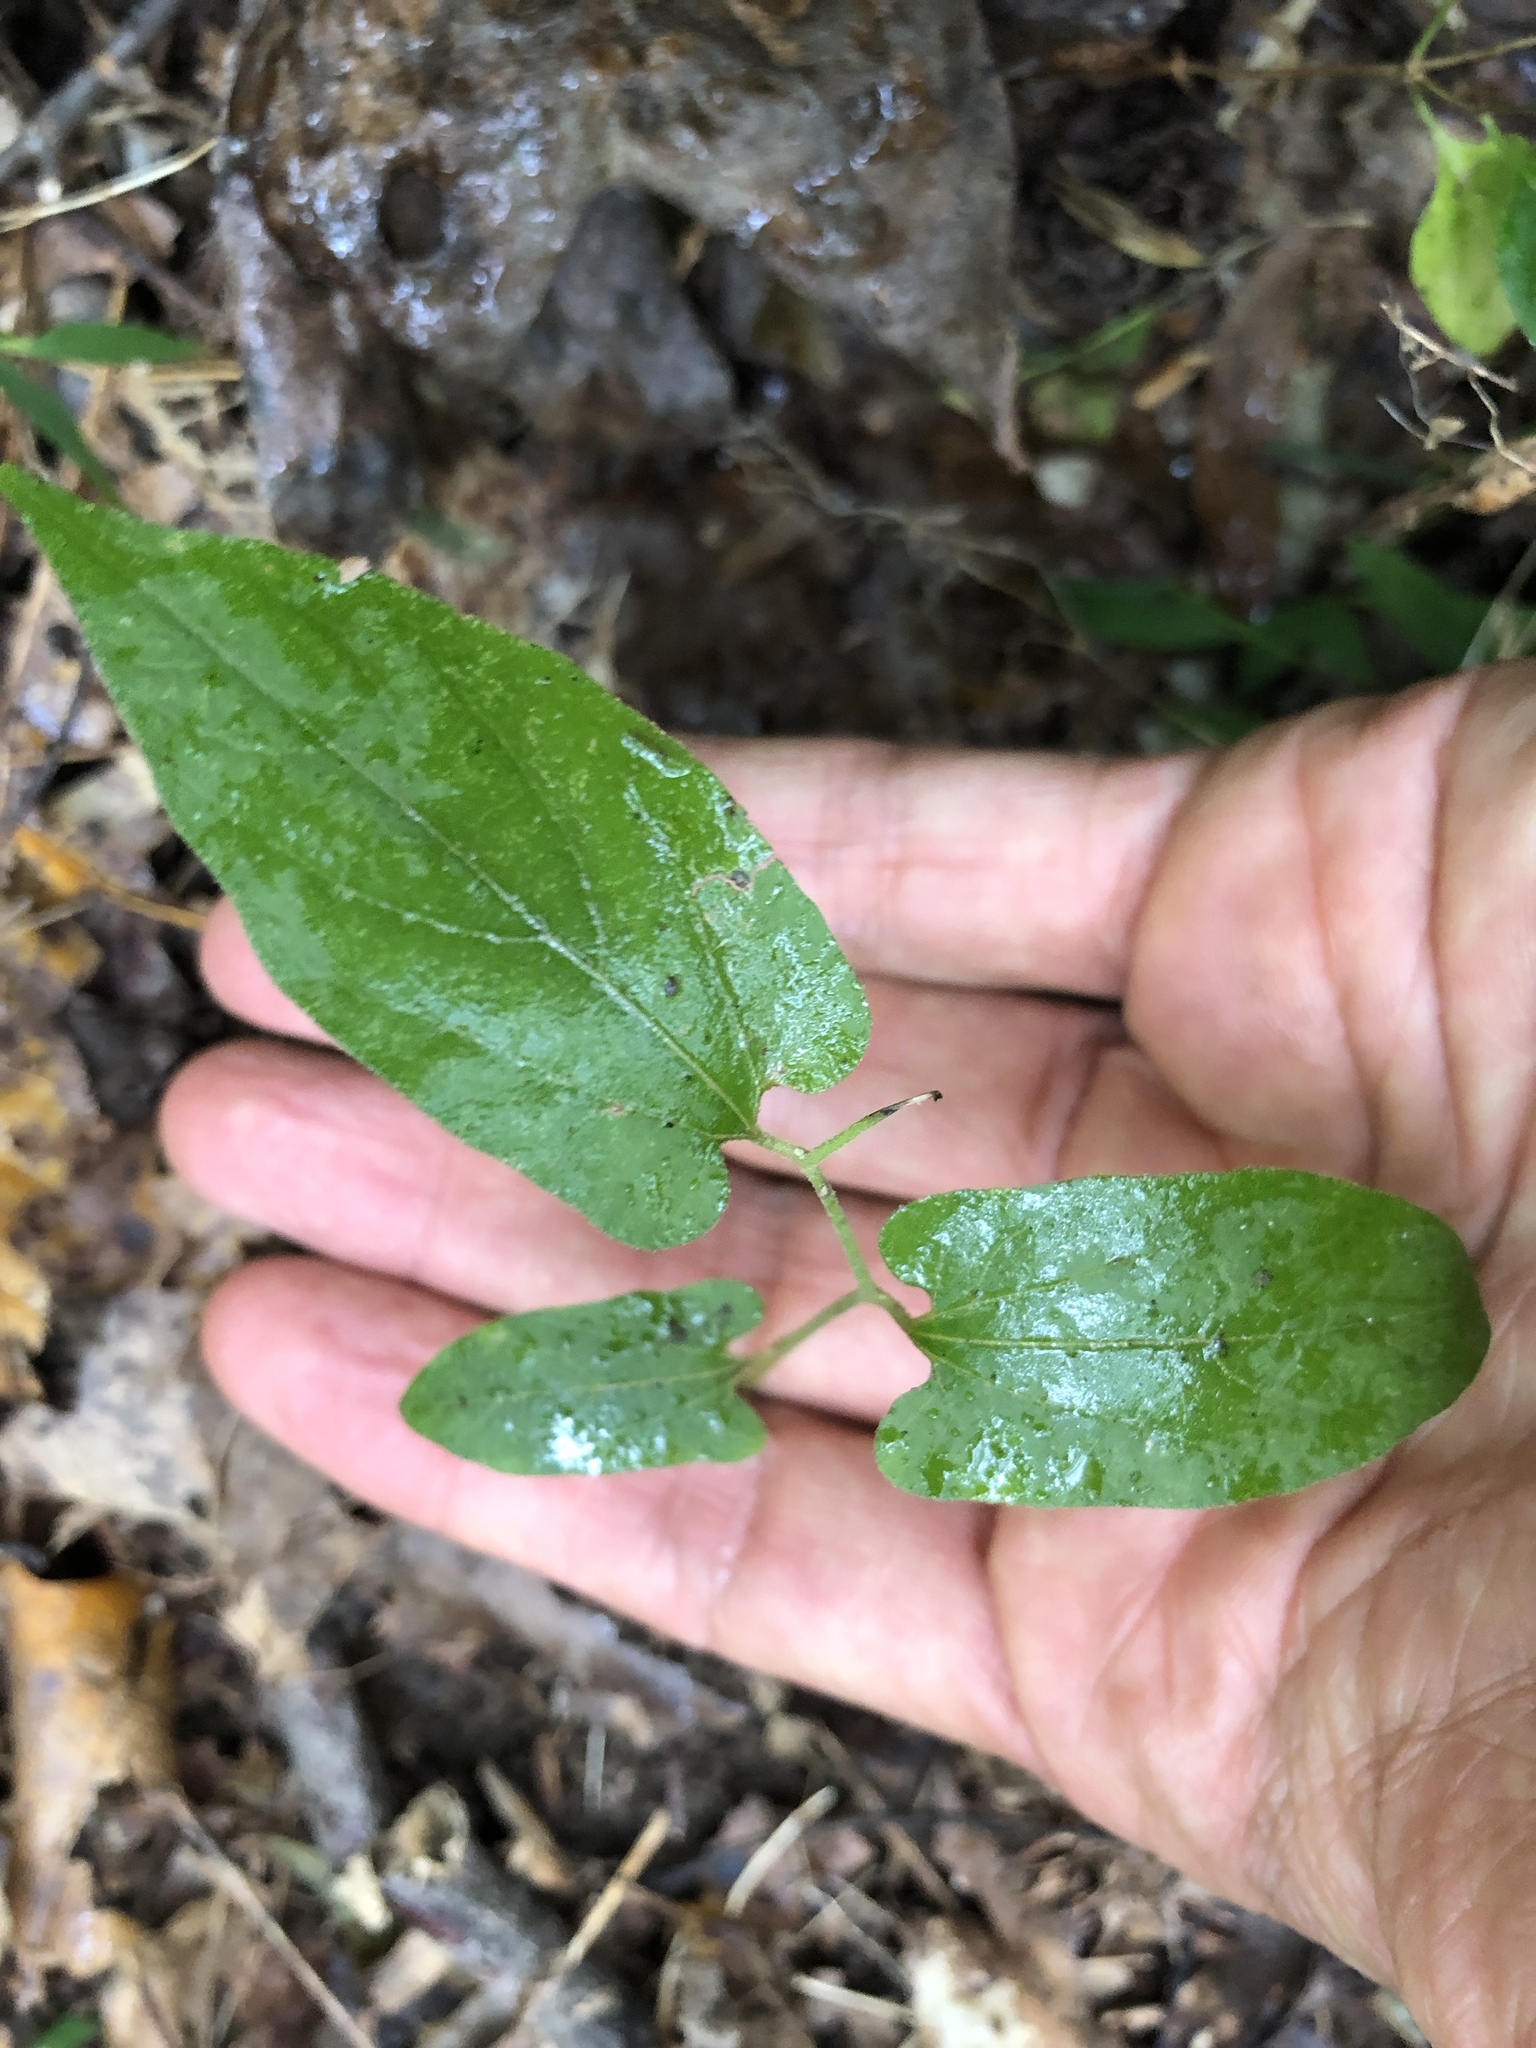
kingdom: Plantae
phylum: Tracheophyta
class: Magnoliopsida
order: Piperales
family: Aristolochiaceae
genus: Endodeca
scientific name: Endodeca serpentaria
